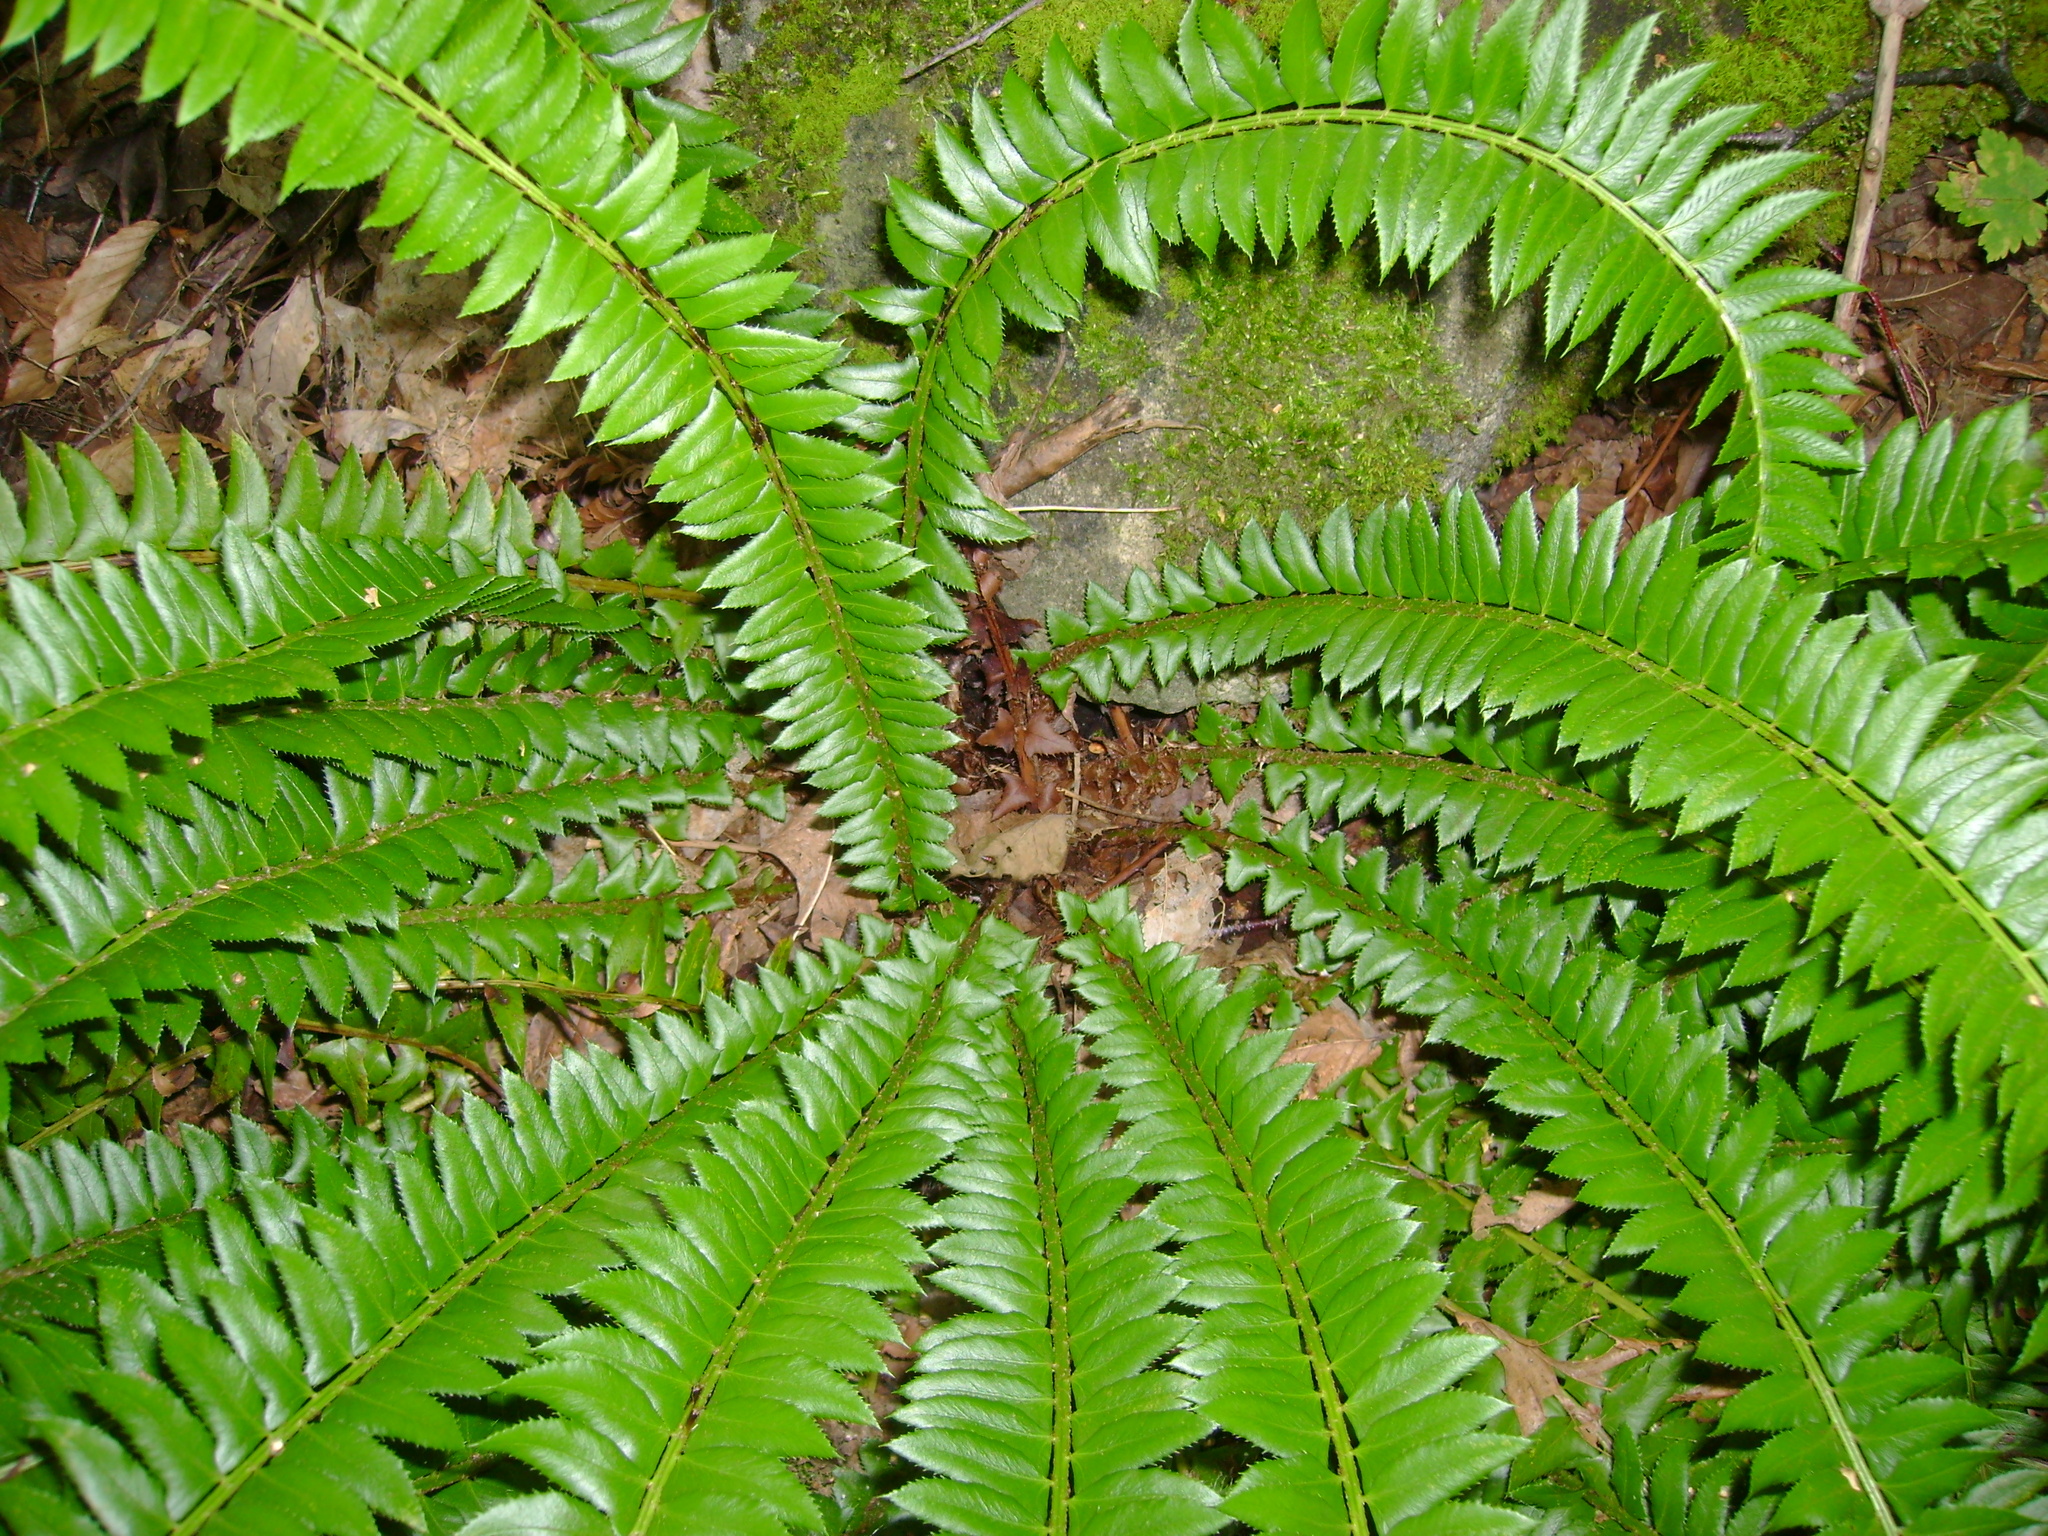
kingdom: Plantae
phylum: Tracheophyta
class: Polypodiopsida
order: Polypodiales
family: Dryopteridaceae
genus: Polystichum
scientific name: Polystichum lonchitis
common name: Holly fern
